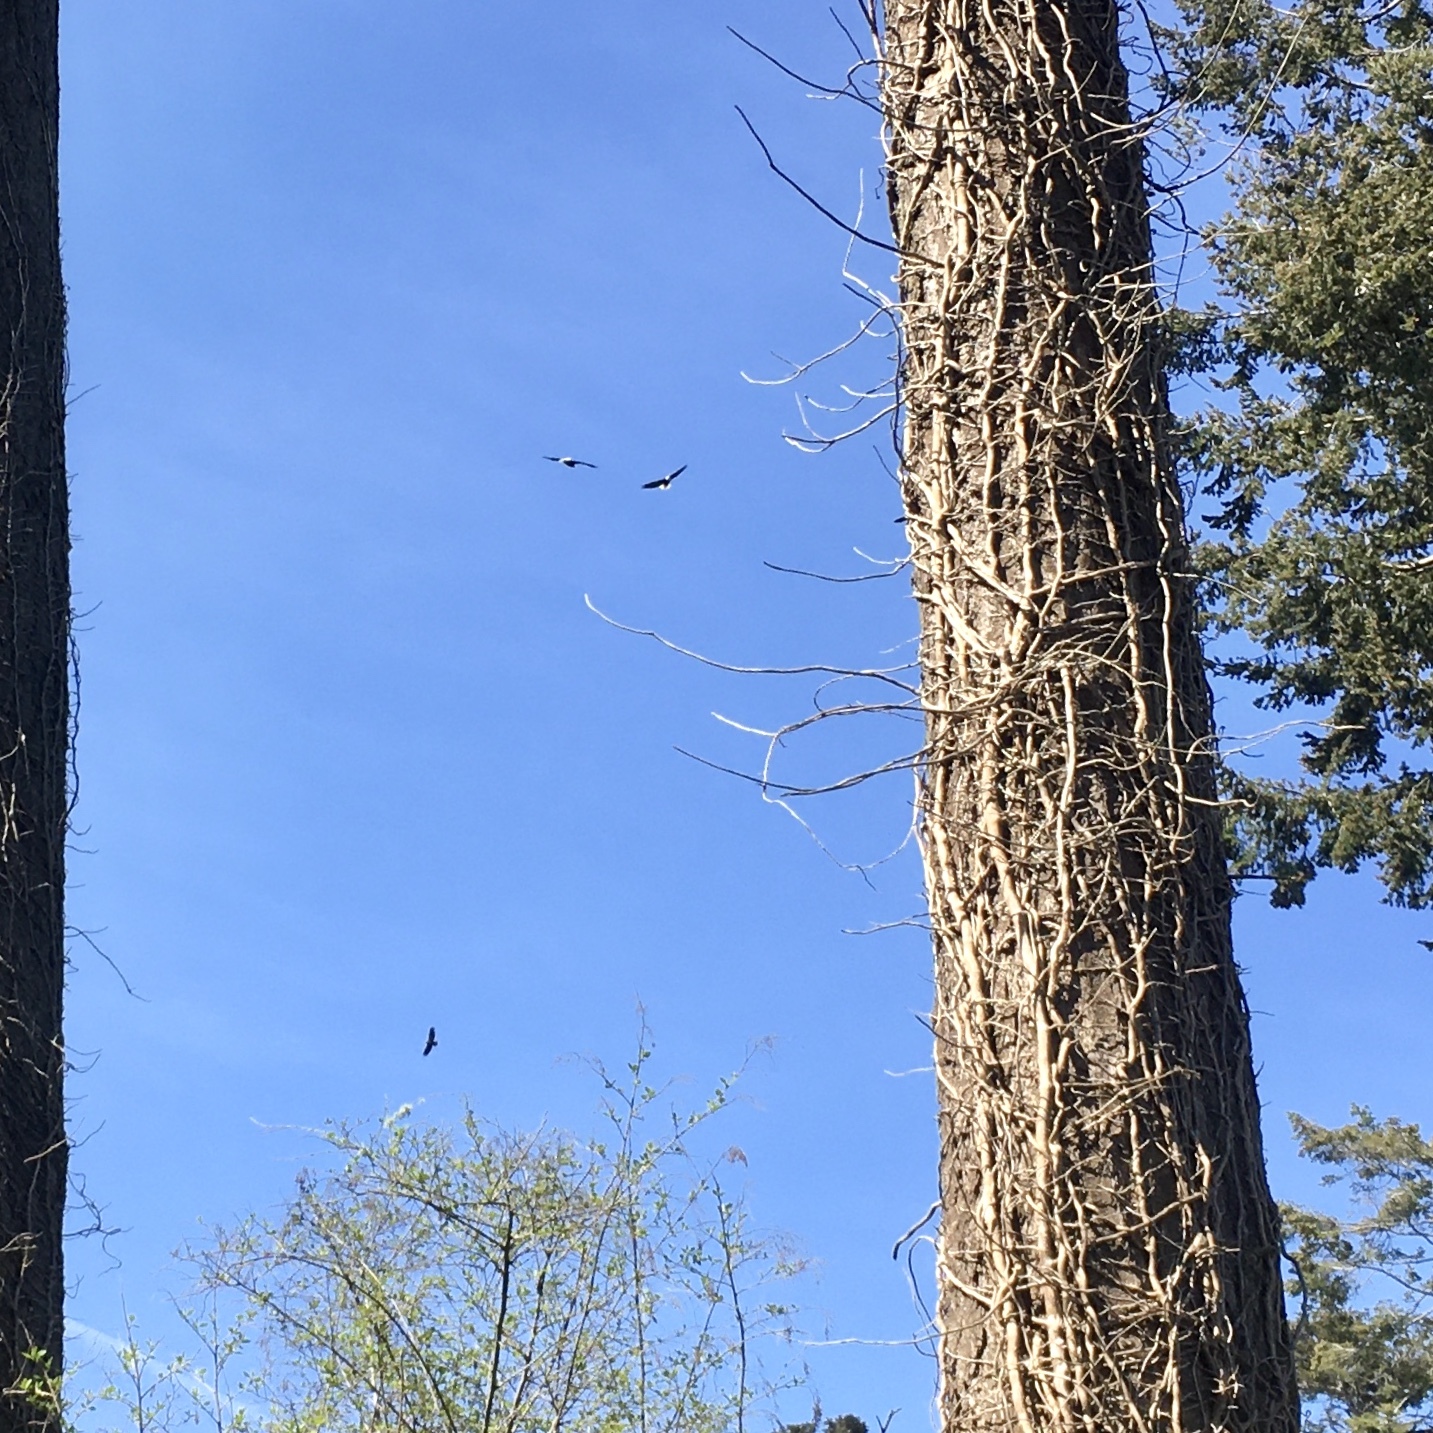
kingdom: Animalia
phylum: Chordata
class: Aves
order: Accipitriformes
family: Accipitridae
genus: Haliaeetus
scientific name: Haliaeetus leucocephalus
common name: Bald eagle
